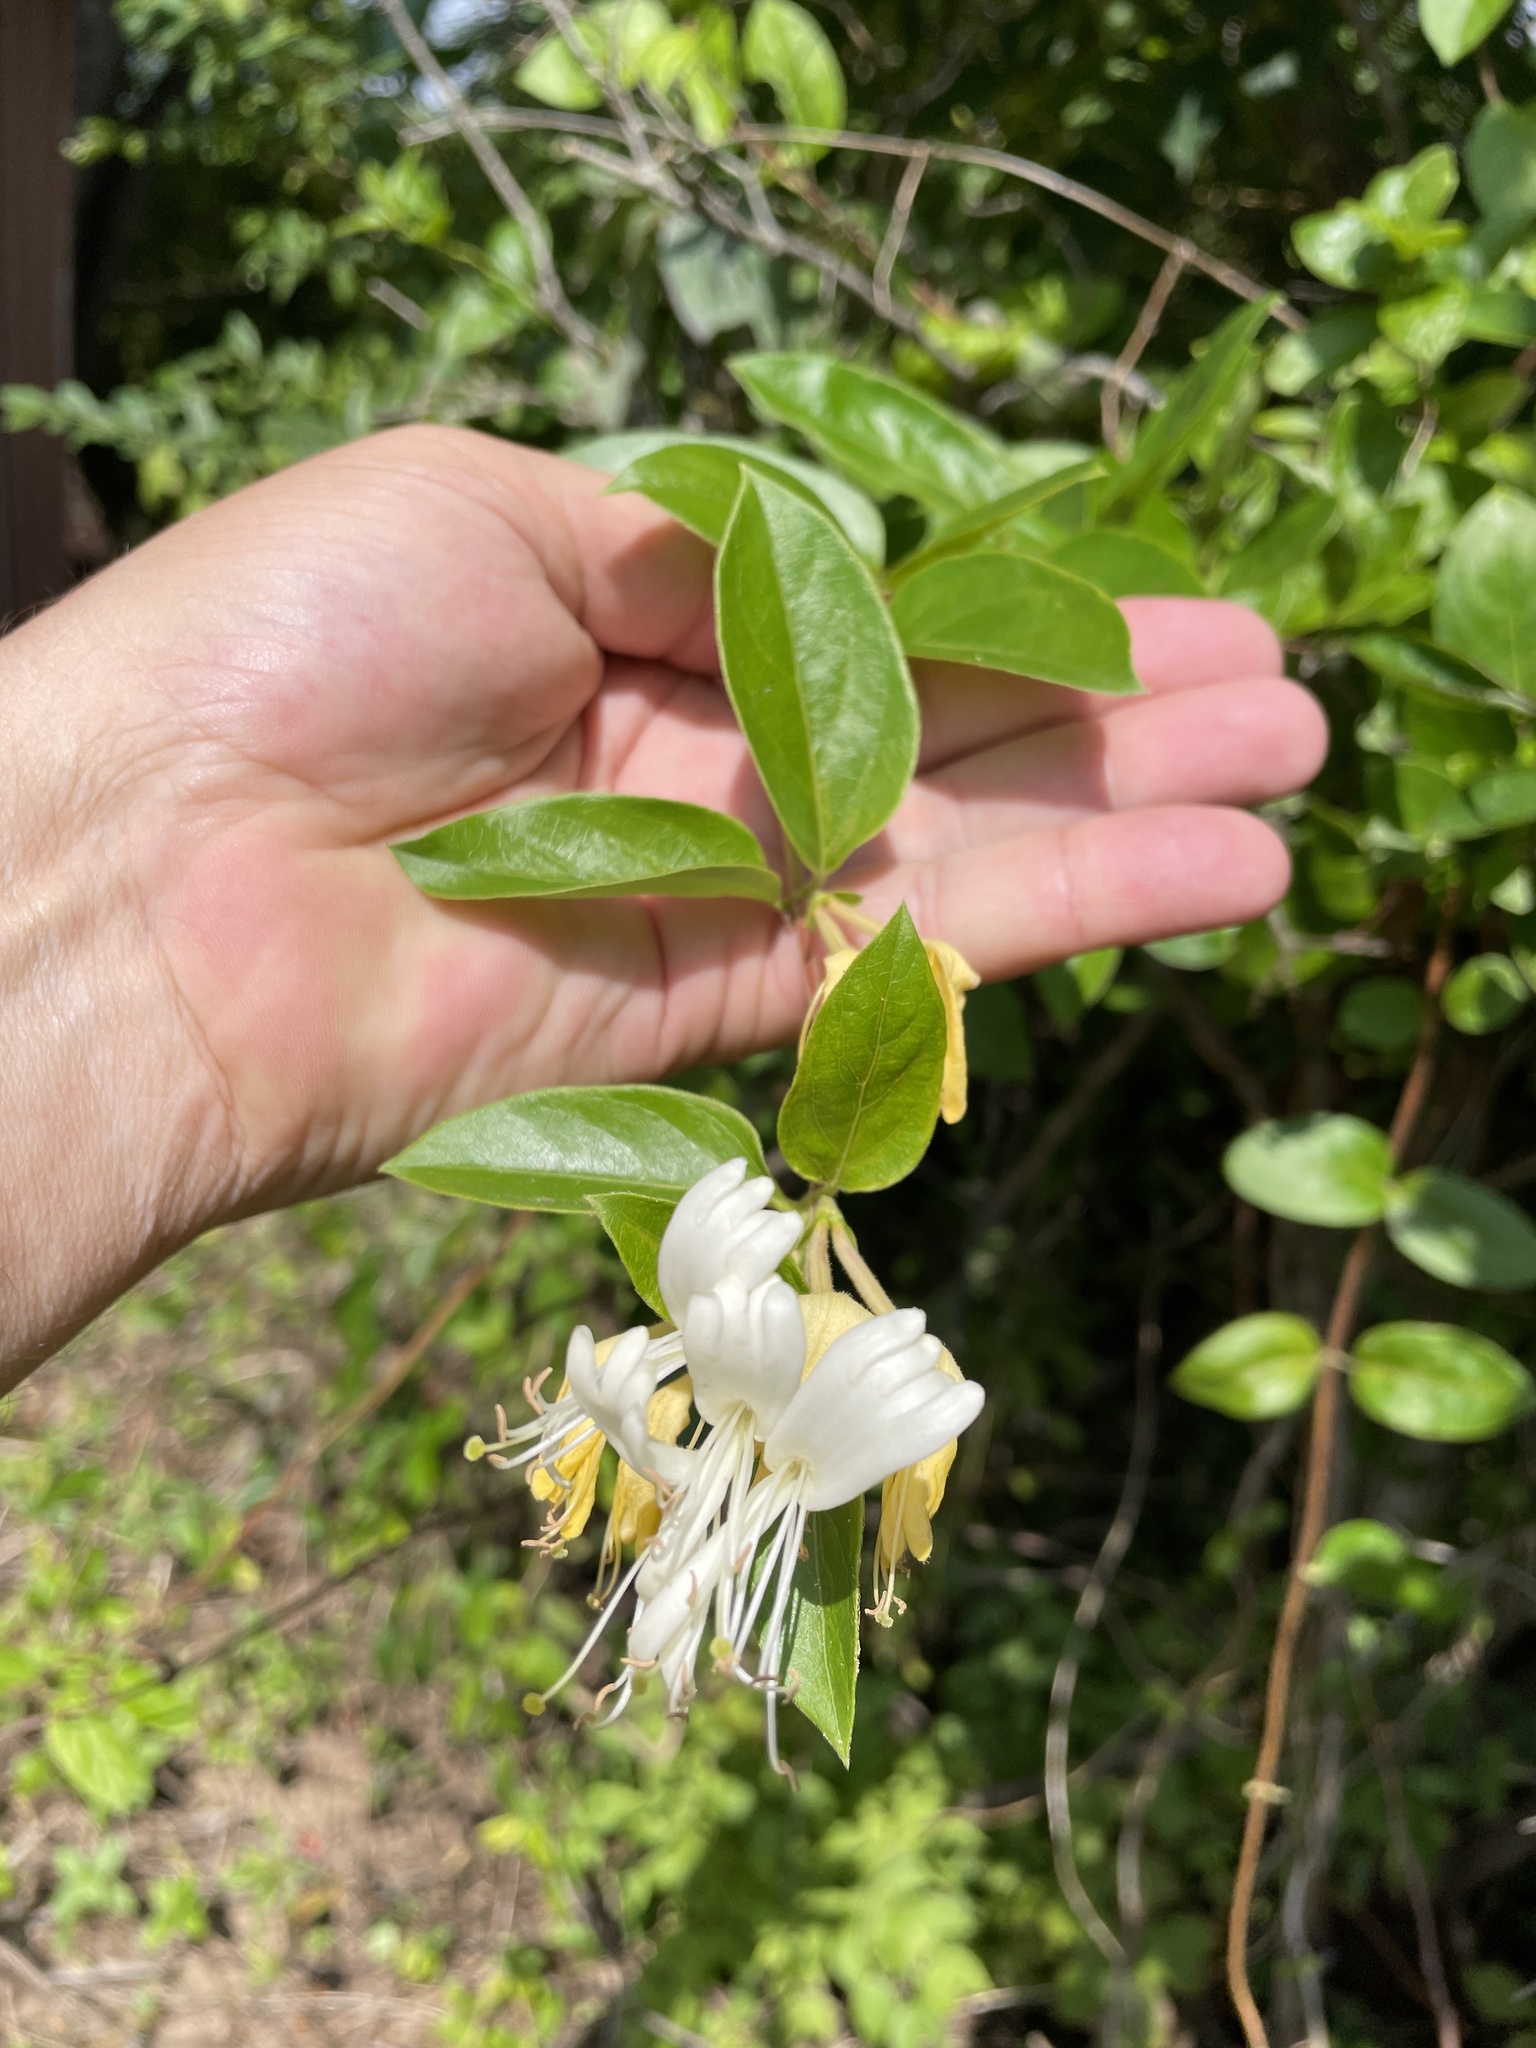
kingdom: Plantae
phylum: Tracheophyta
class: Magnoliopsida
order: Dipsacales
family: Caprifoliaceae
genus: Lonicera
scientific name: Lonicera japonica
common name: Japanese honeysuckle
